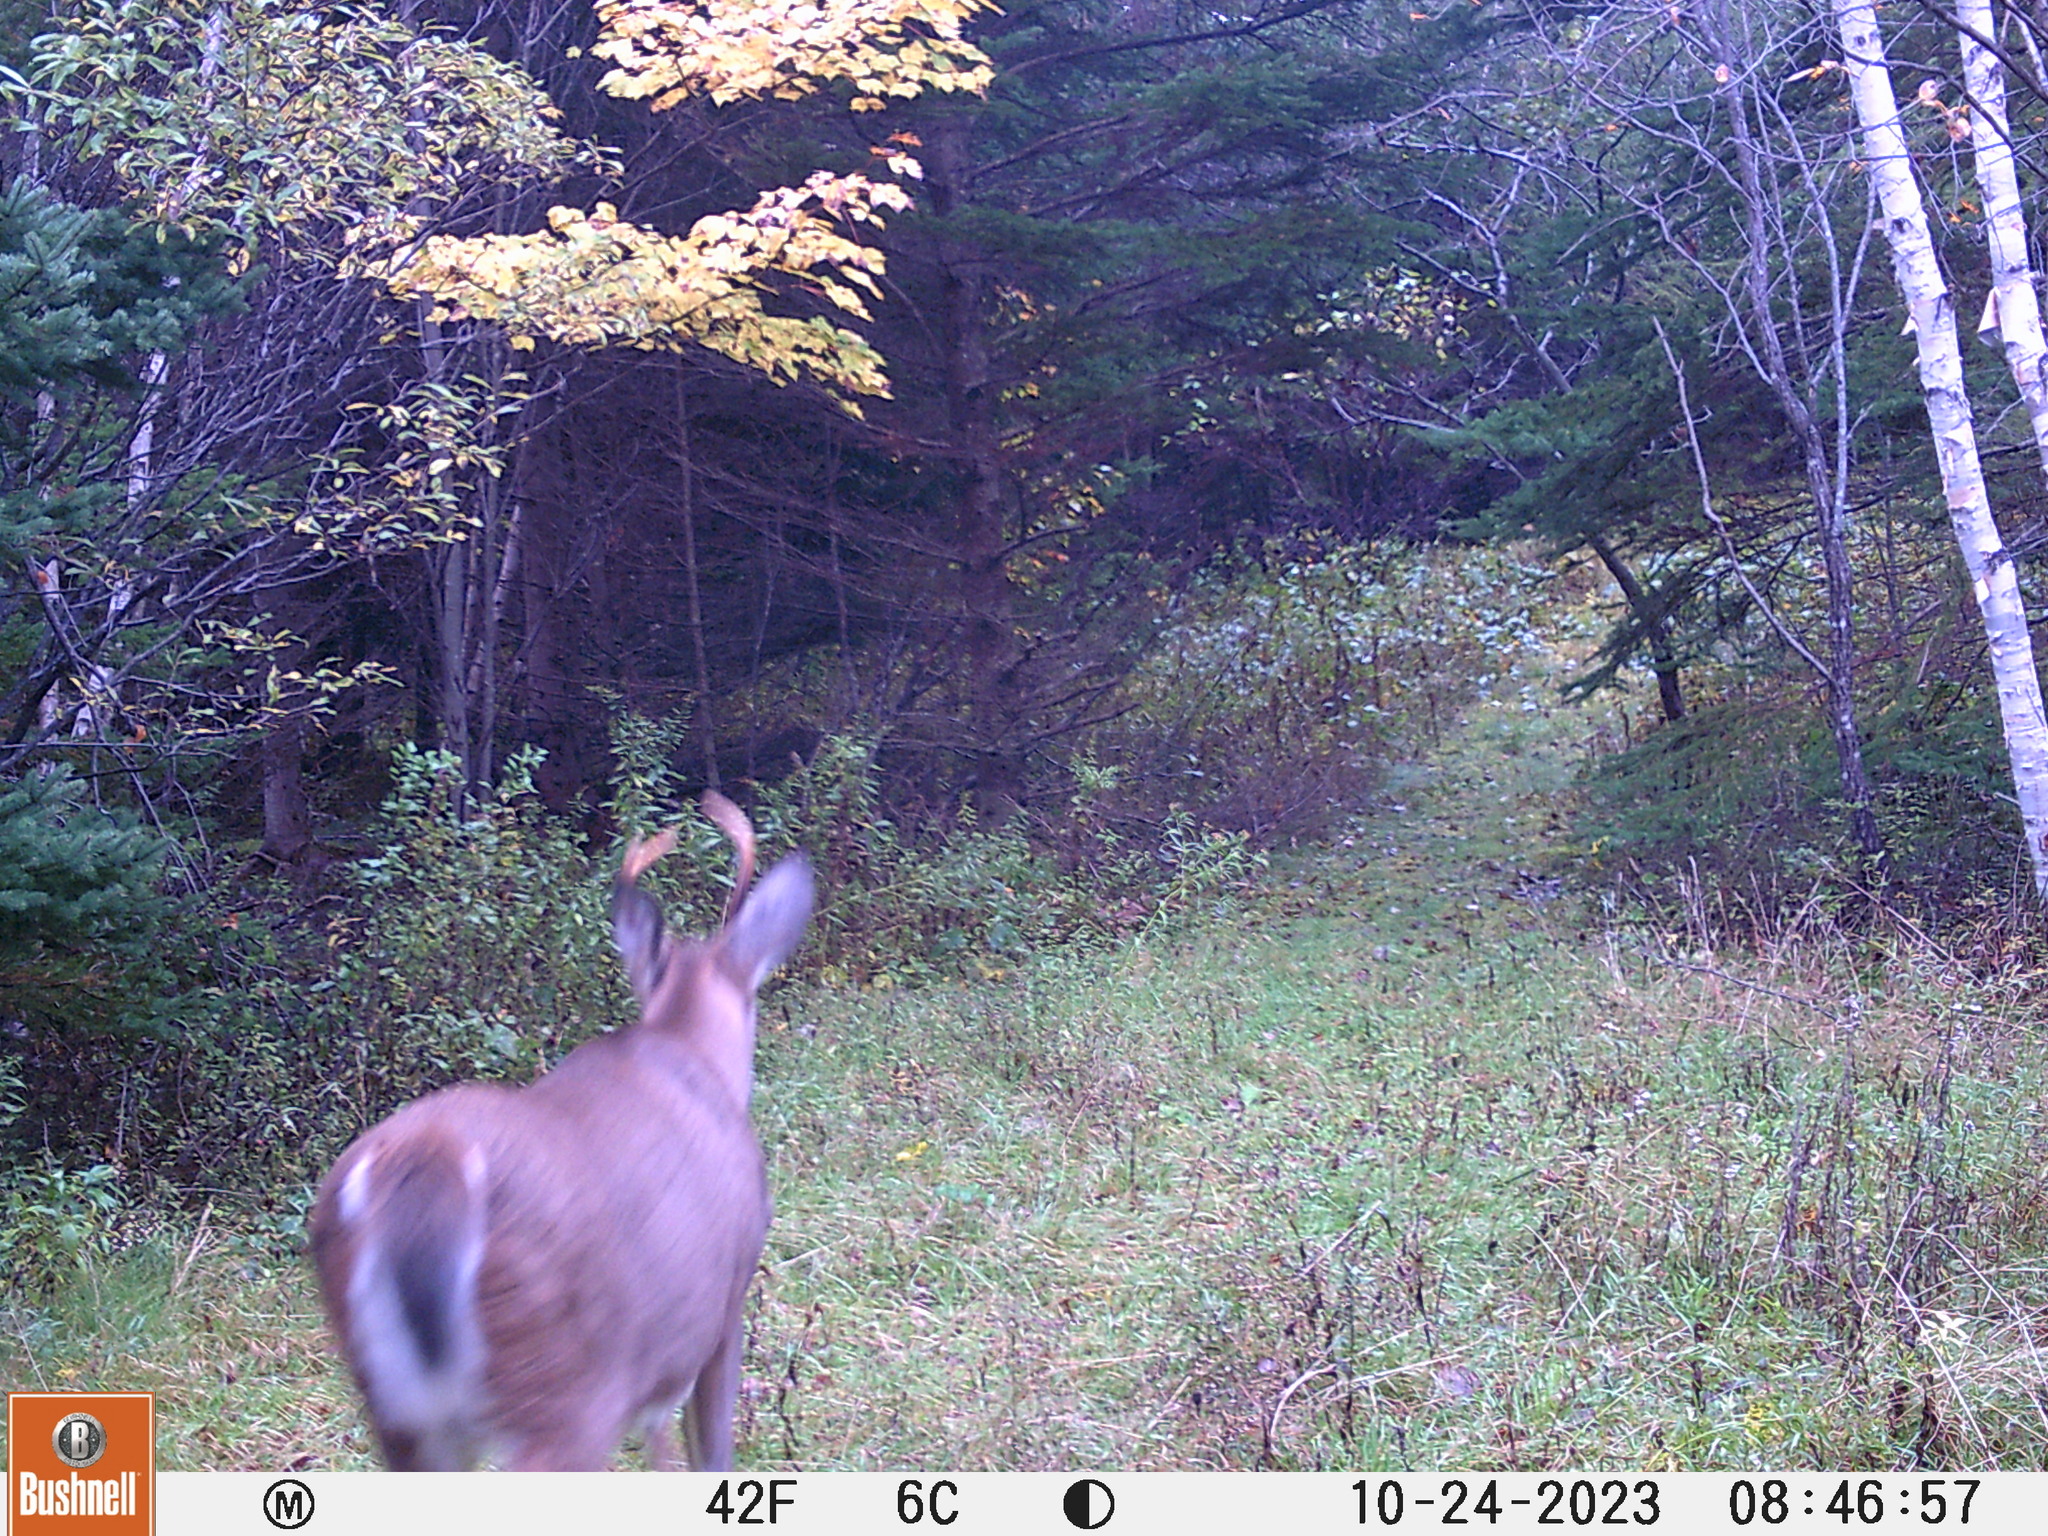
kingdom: Animalia
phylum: Chordata
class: Mammalia
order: Artiodactyla
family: Cervidae
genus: Odocoileus
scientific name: Odocoileus virginianus
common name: White-tailed deer
